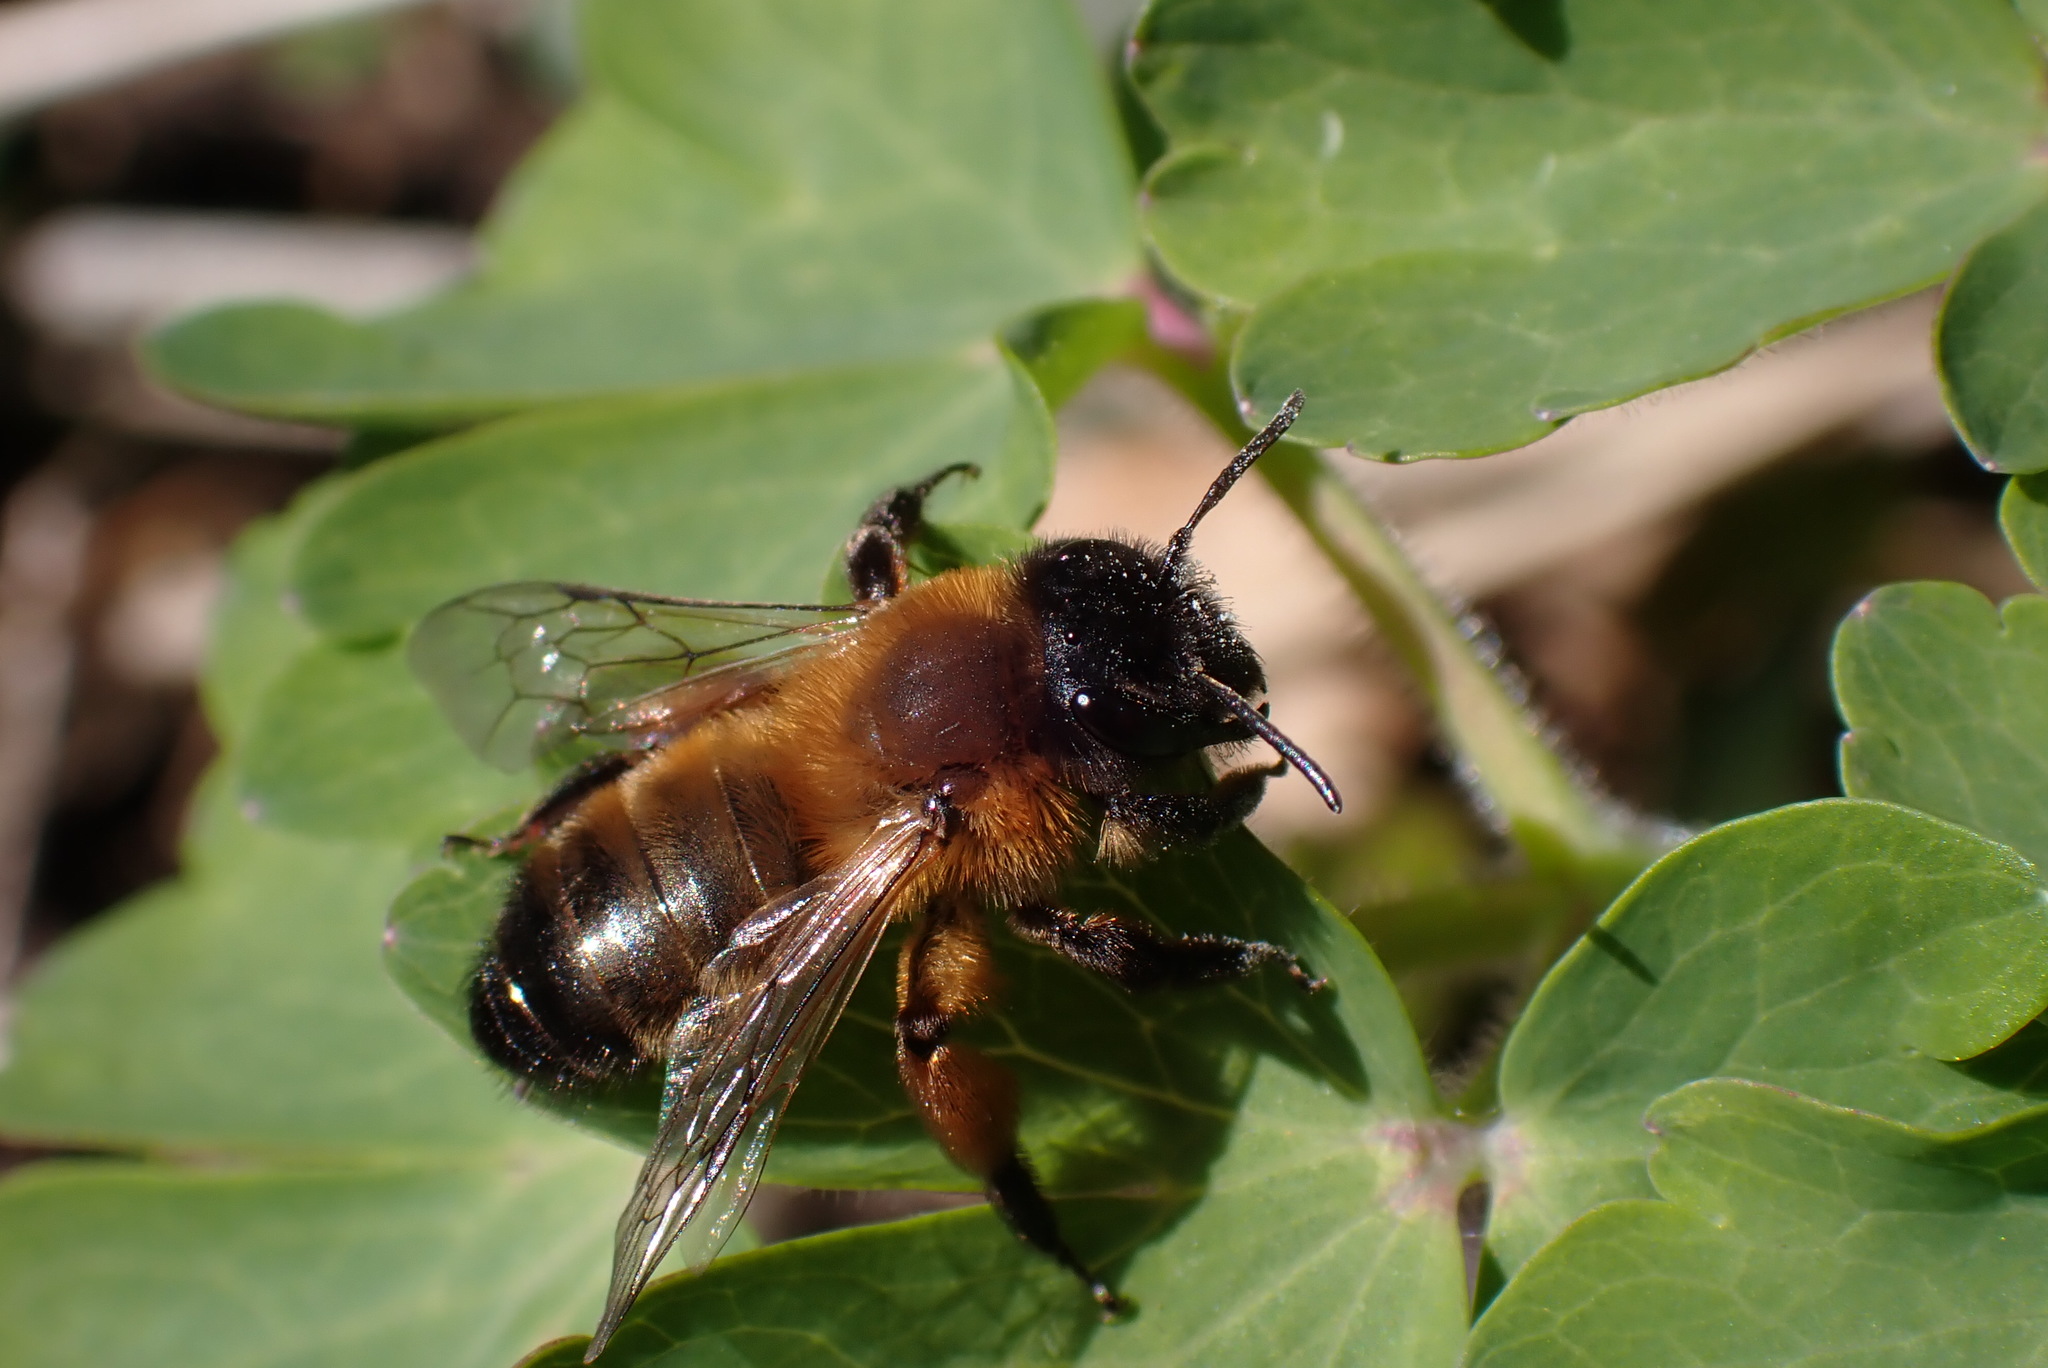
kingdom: Animalia
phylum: Arthropoda
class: Insecta
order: Hymenoptera
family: Andrenidae
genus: Andrena
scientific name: Andrena nigroaenea
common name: Buffish mining bee
